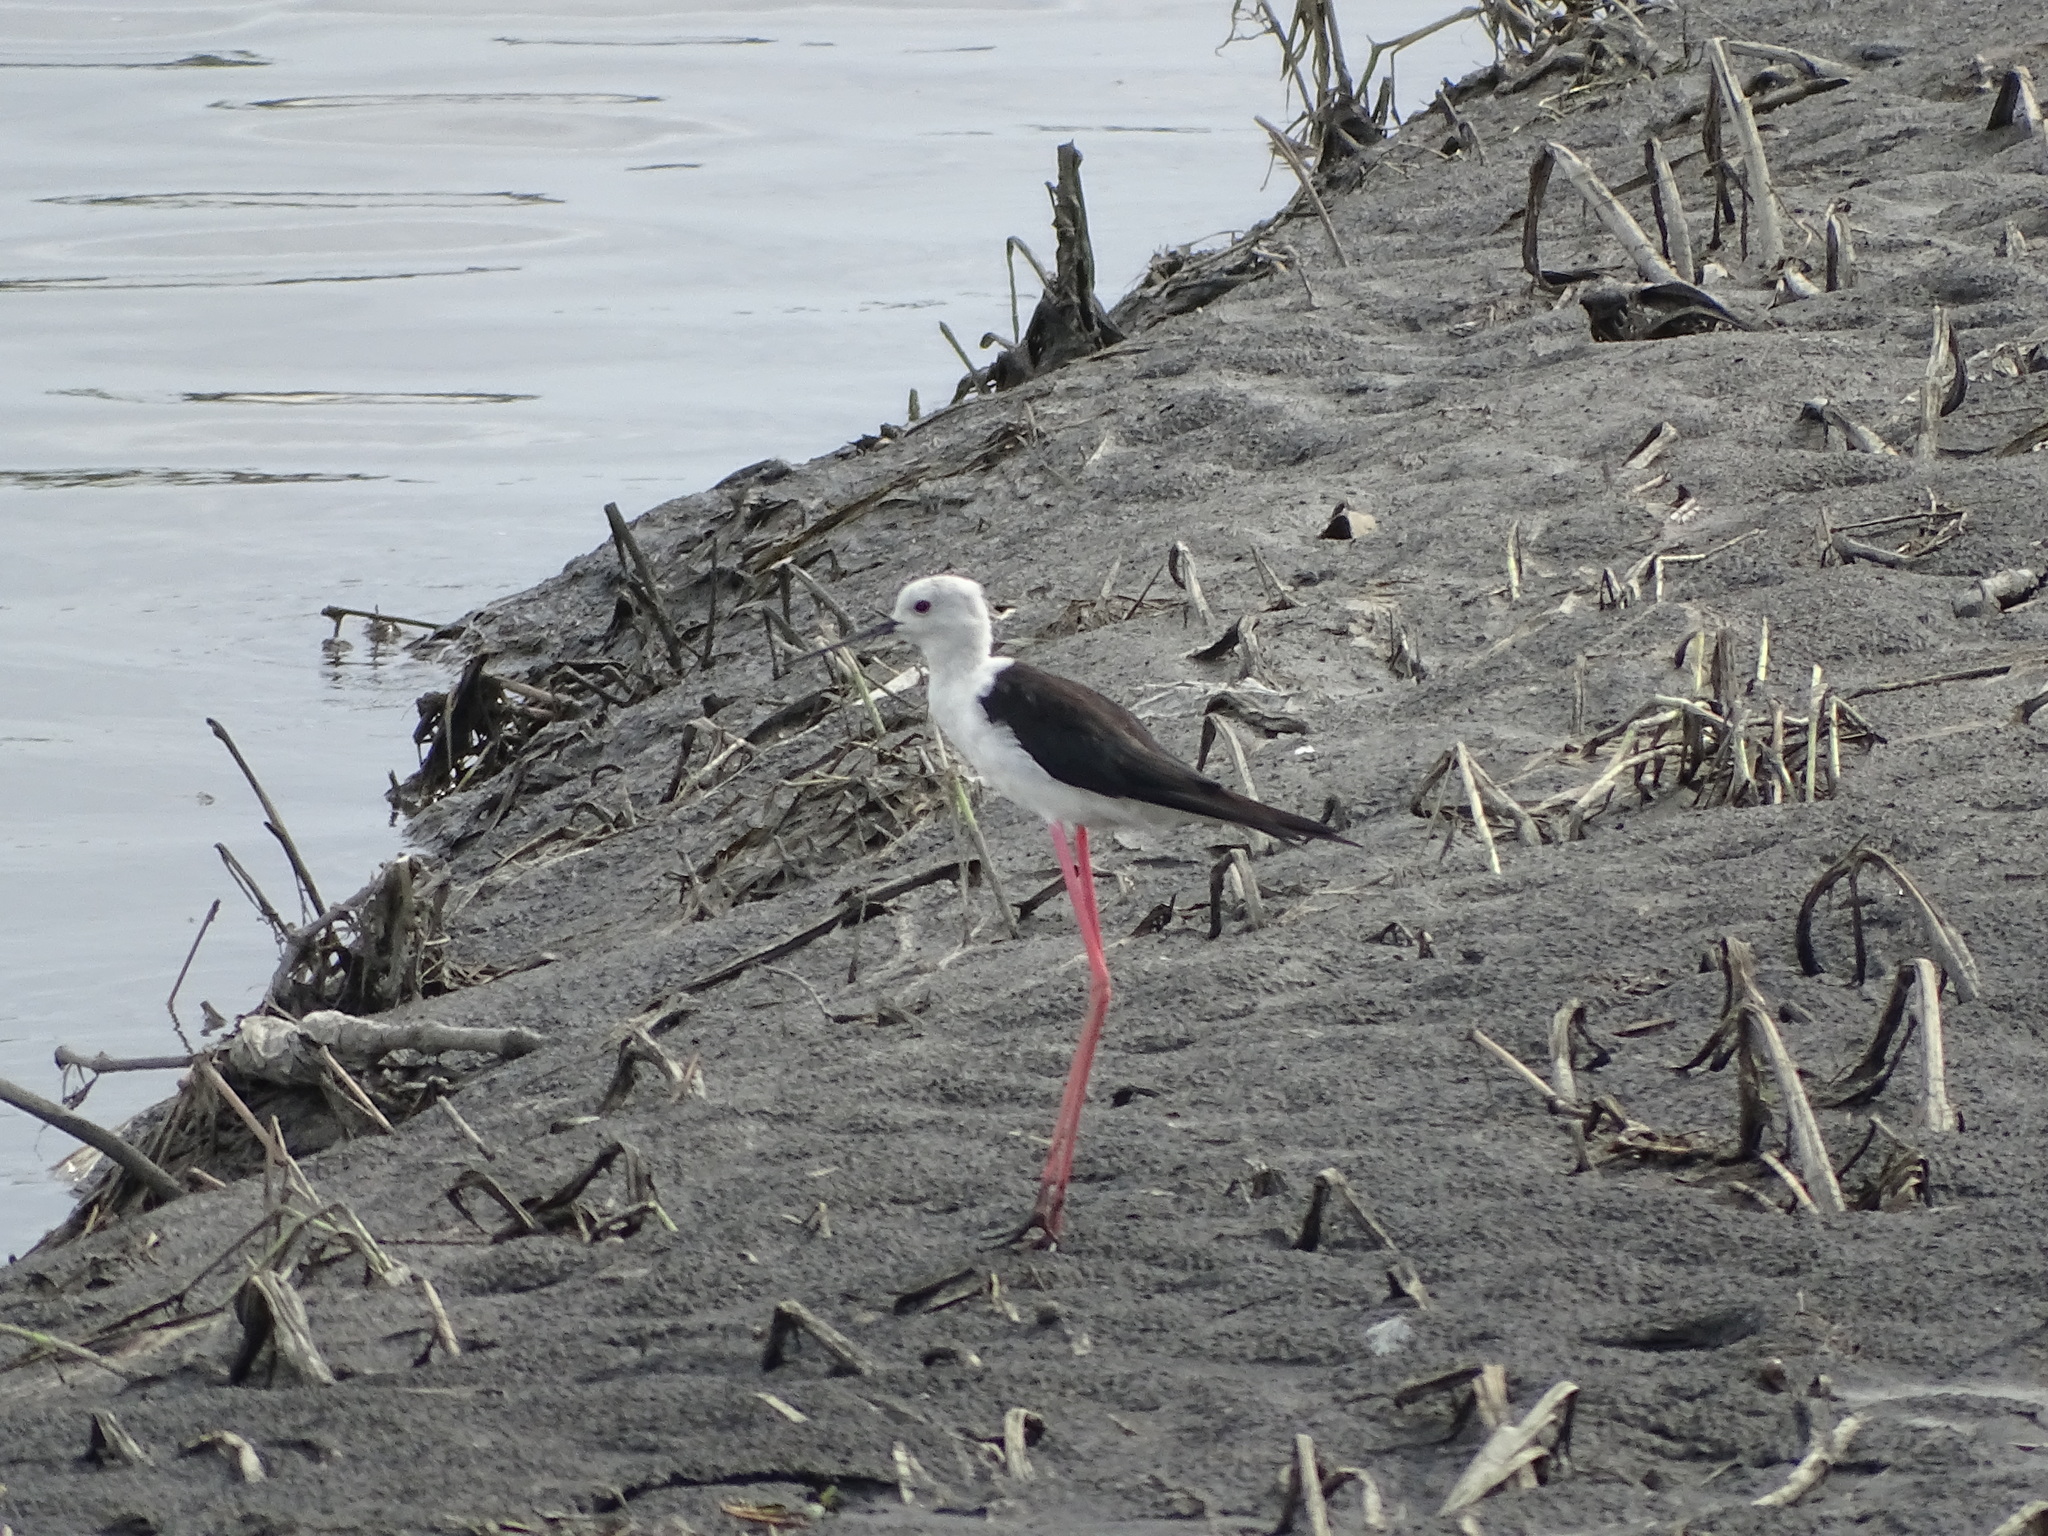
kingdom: Animalia
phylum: Chordata
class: Aves
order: Charadriiformes
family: Recurvirostridae
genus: Himantopus
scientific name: Himantopus himantopus
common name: Black-winged stilt
